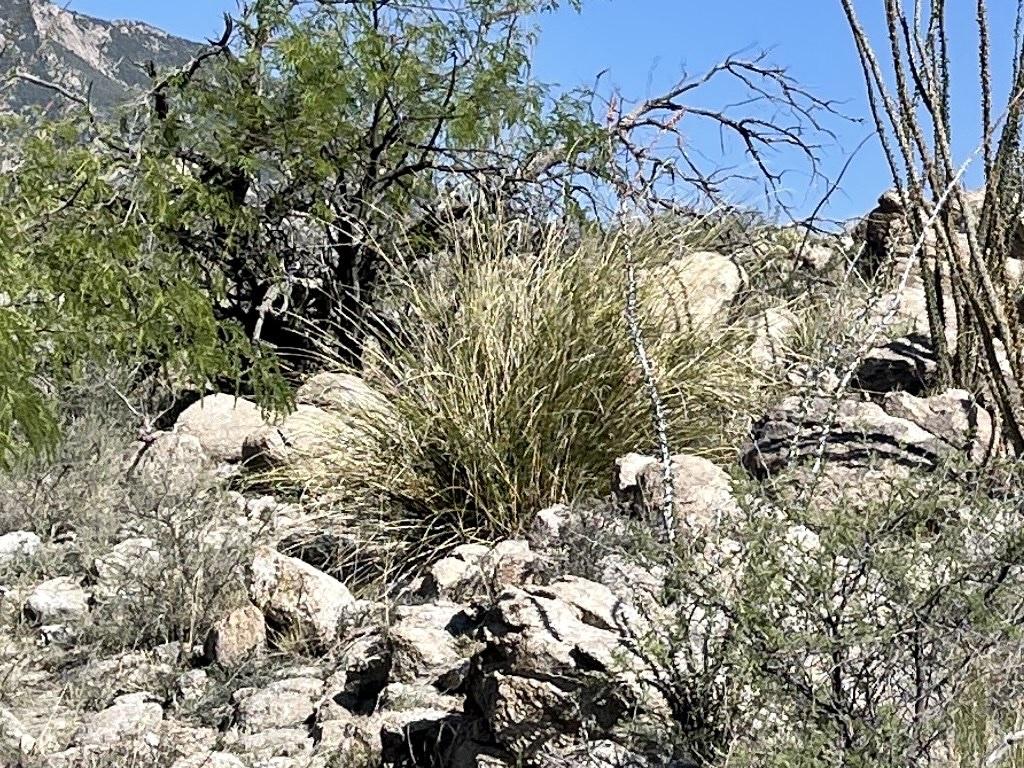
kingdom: Plantae
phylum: Tracheophyta
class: Liliopsida
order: Asparagales
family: Asparagaceae
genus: Nolina
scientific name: Nolina microcarpa
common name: Bear-grass
